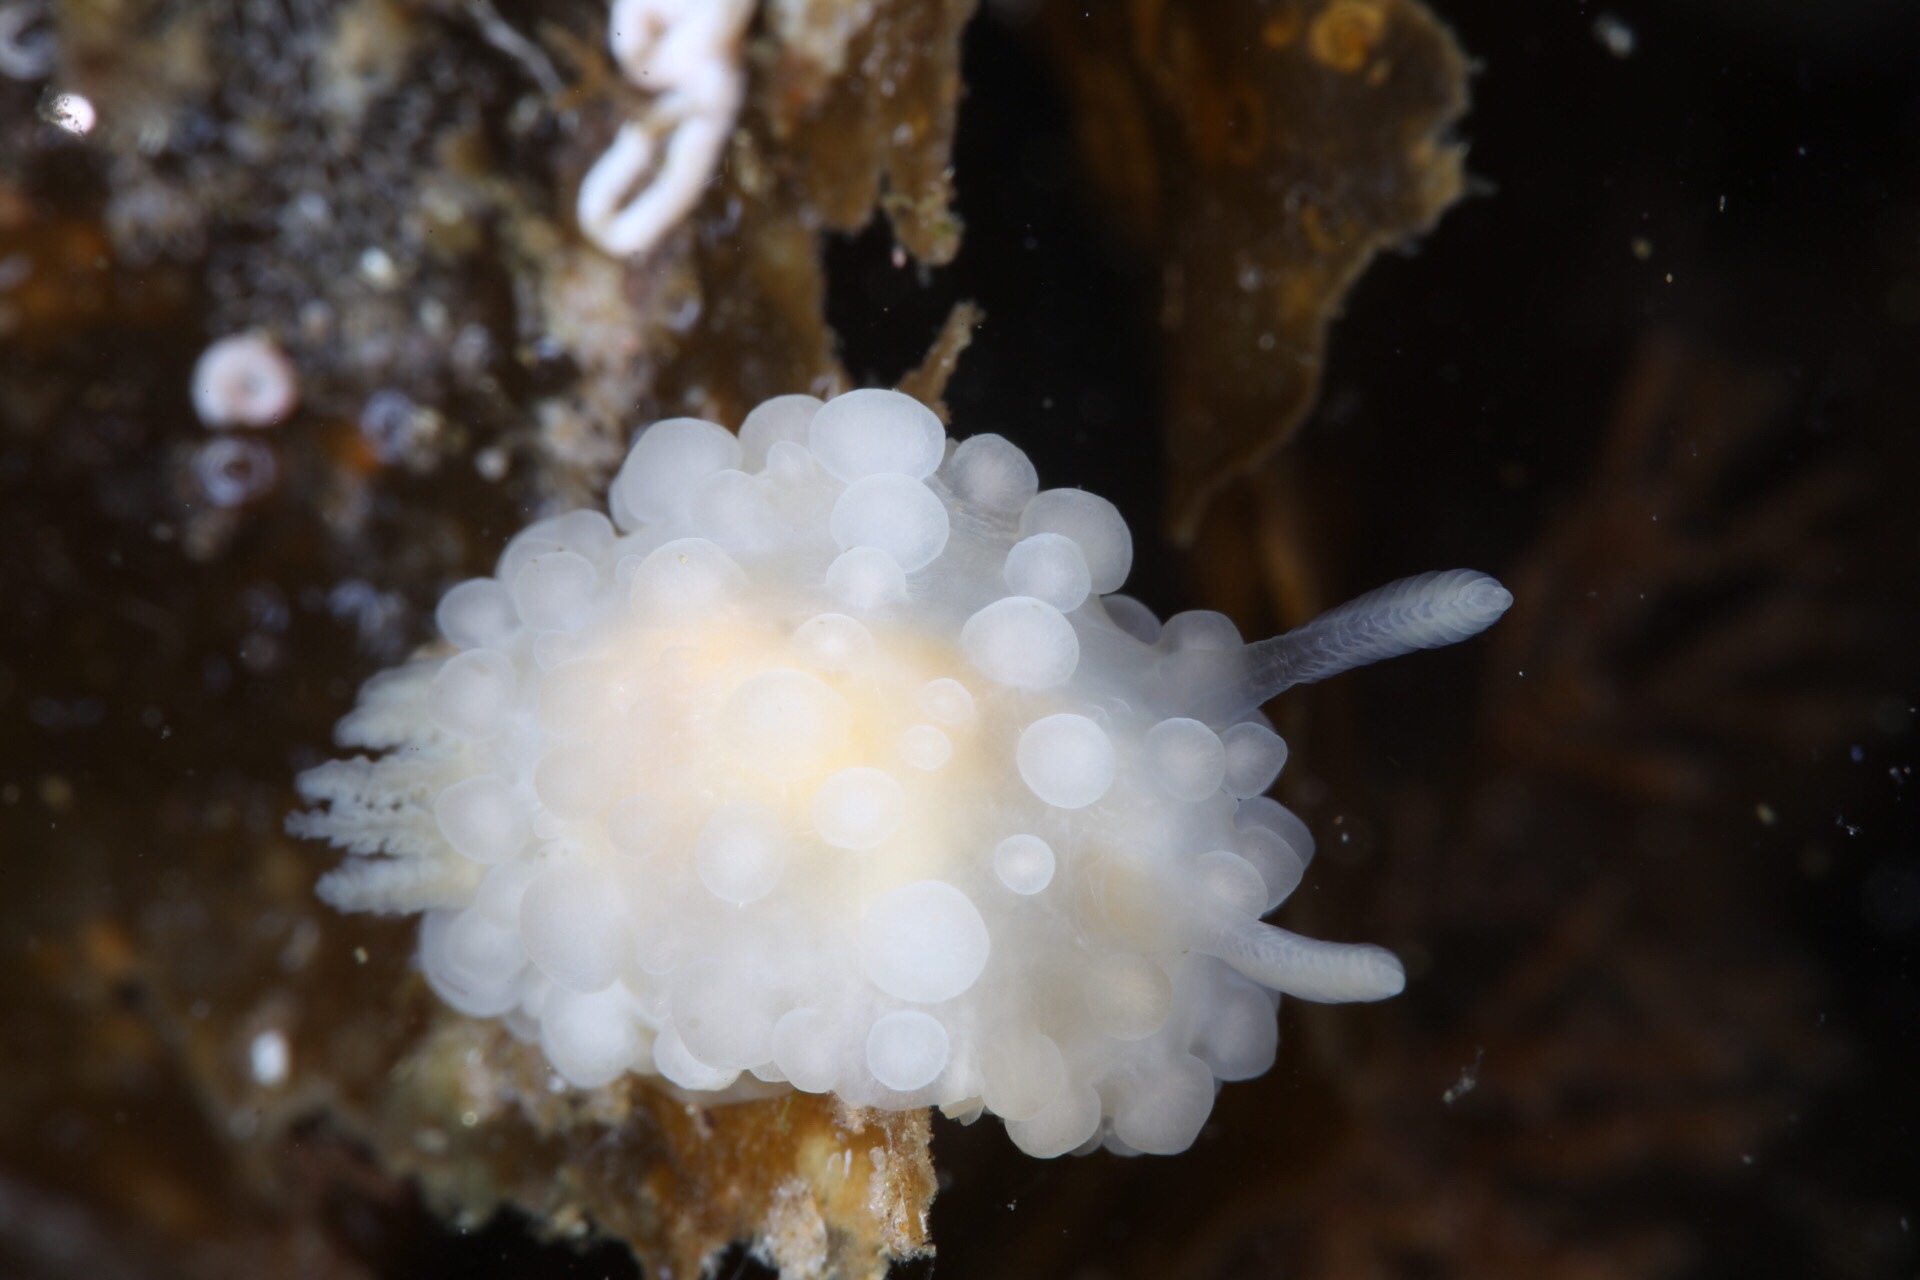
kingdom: Animalia
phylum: Mollusca
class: Gastropoda
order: Nudibranchia
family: Onchidorididae
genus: Adalaria
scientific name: Adalaria loveni
